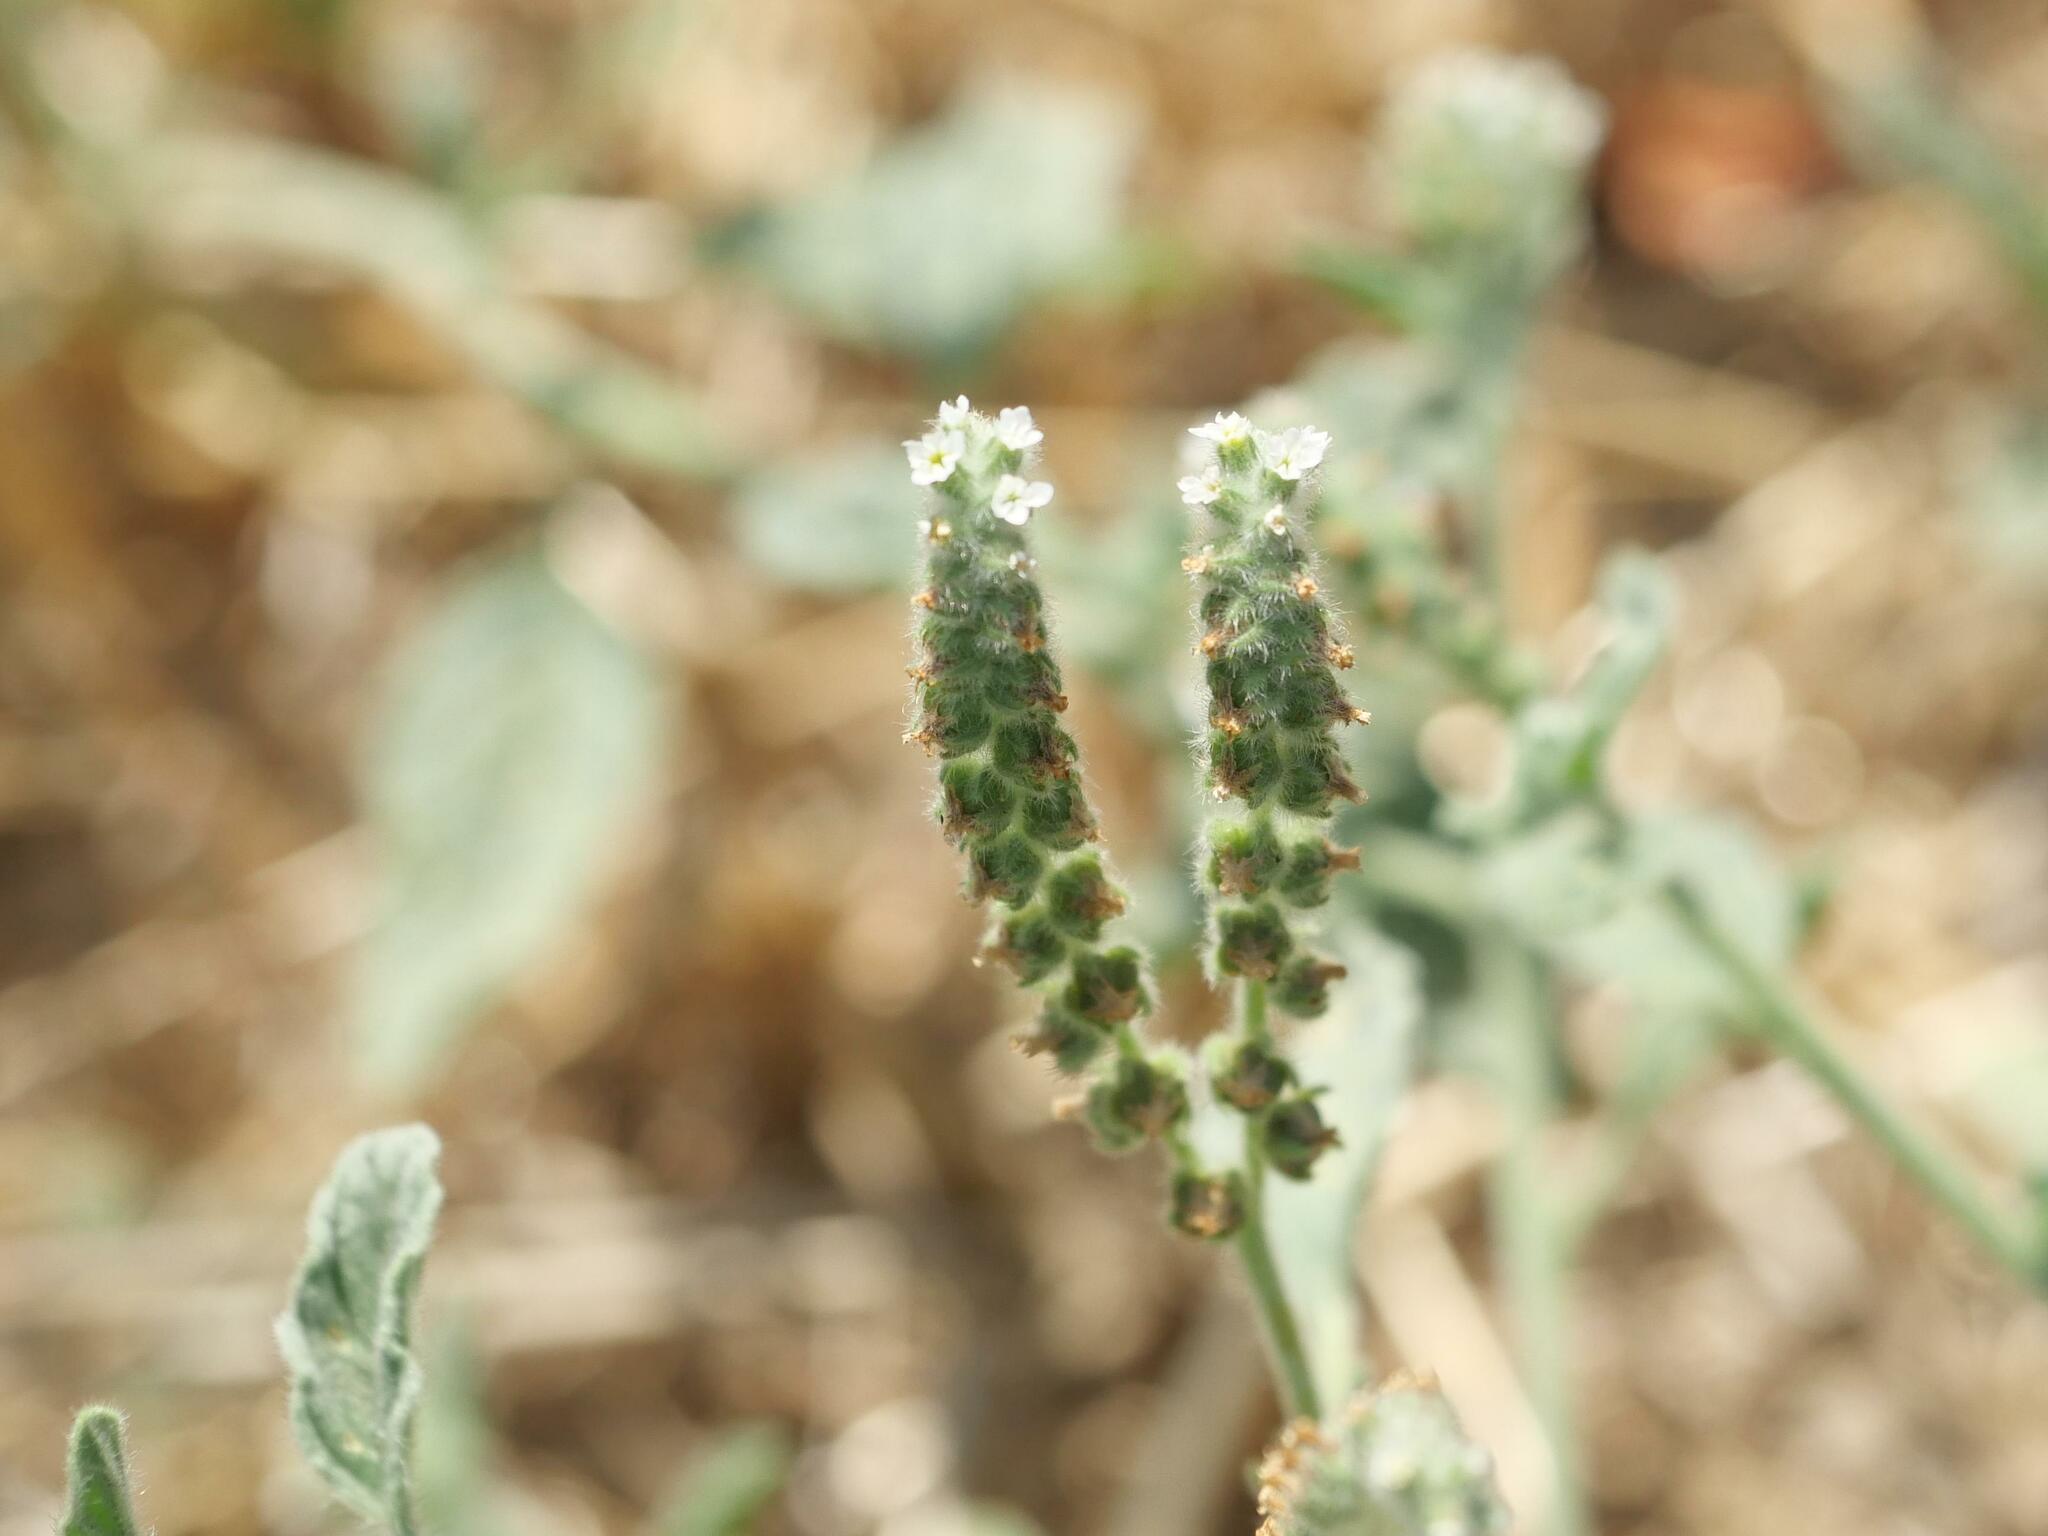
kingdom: Plantae
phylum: Tracheophyta
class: Magnoliopsida
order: Boraginales
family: Heliotropiaceae
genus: Heliotropium
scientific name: Heliotropium europaeum
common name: European heliotrope
